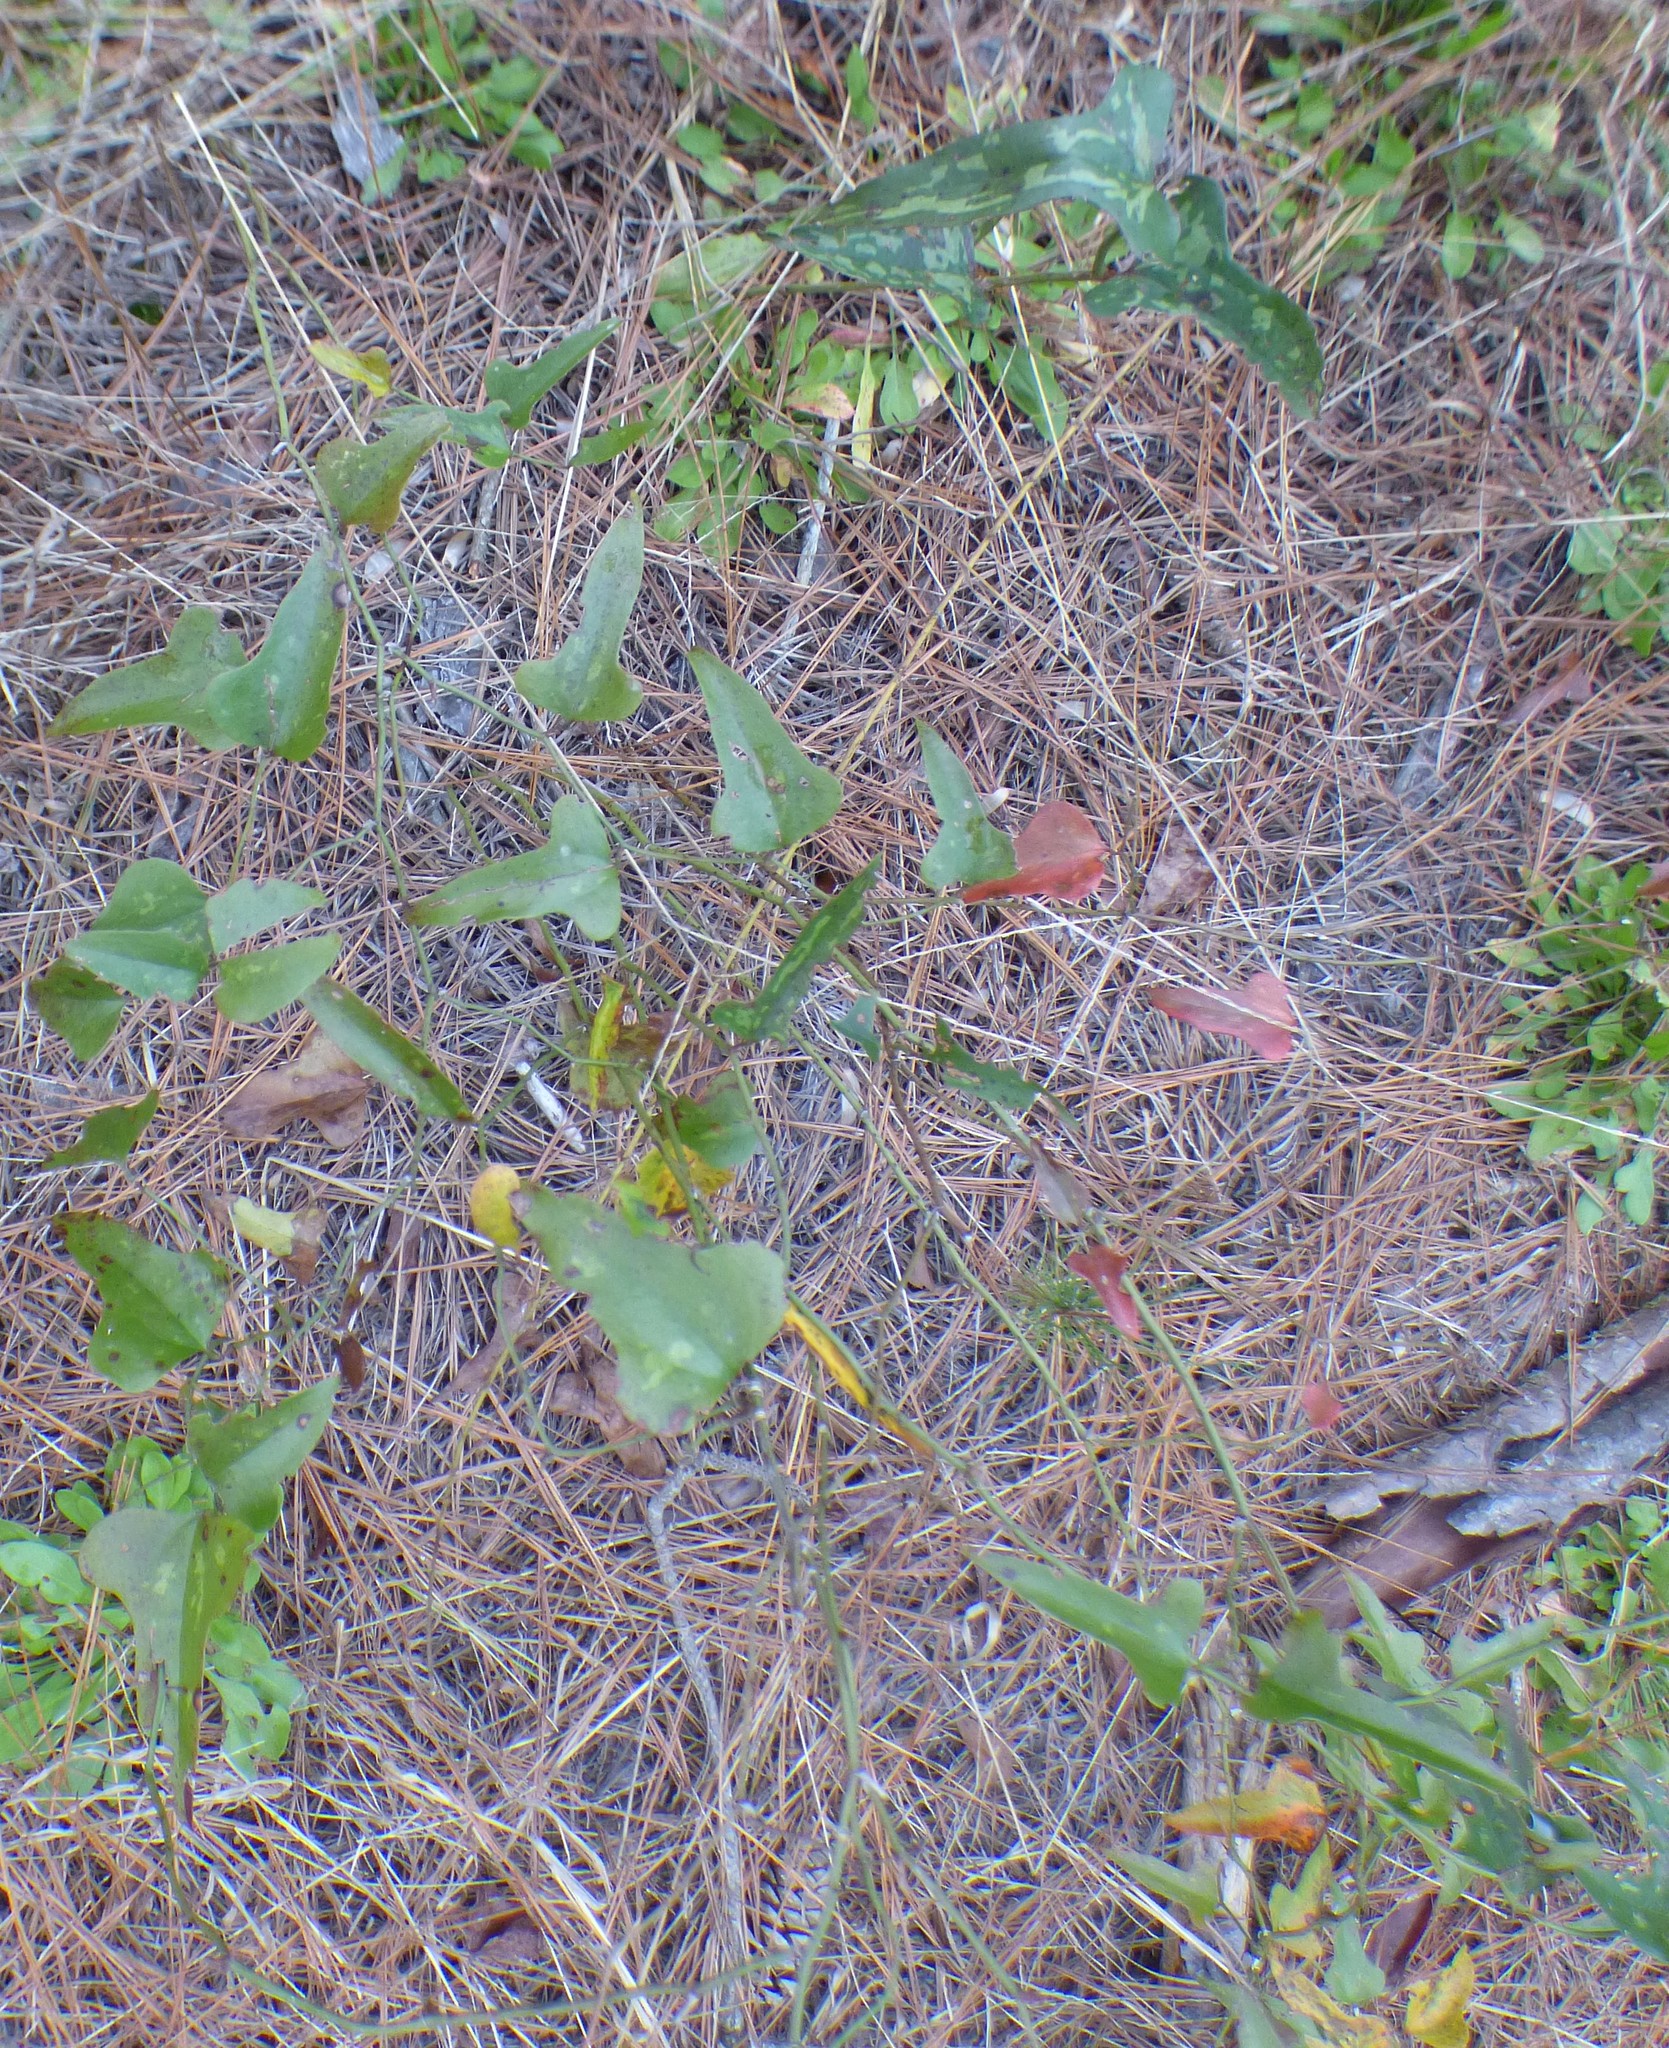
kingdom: Plantae
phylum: Tracheophyta
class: Liliopsida
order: Liliales
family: Smilacaceae
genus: Smilax
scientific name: Smilax bona-nox
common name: Catbrier
